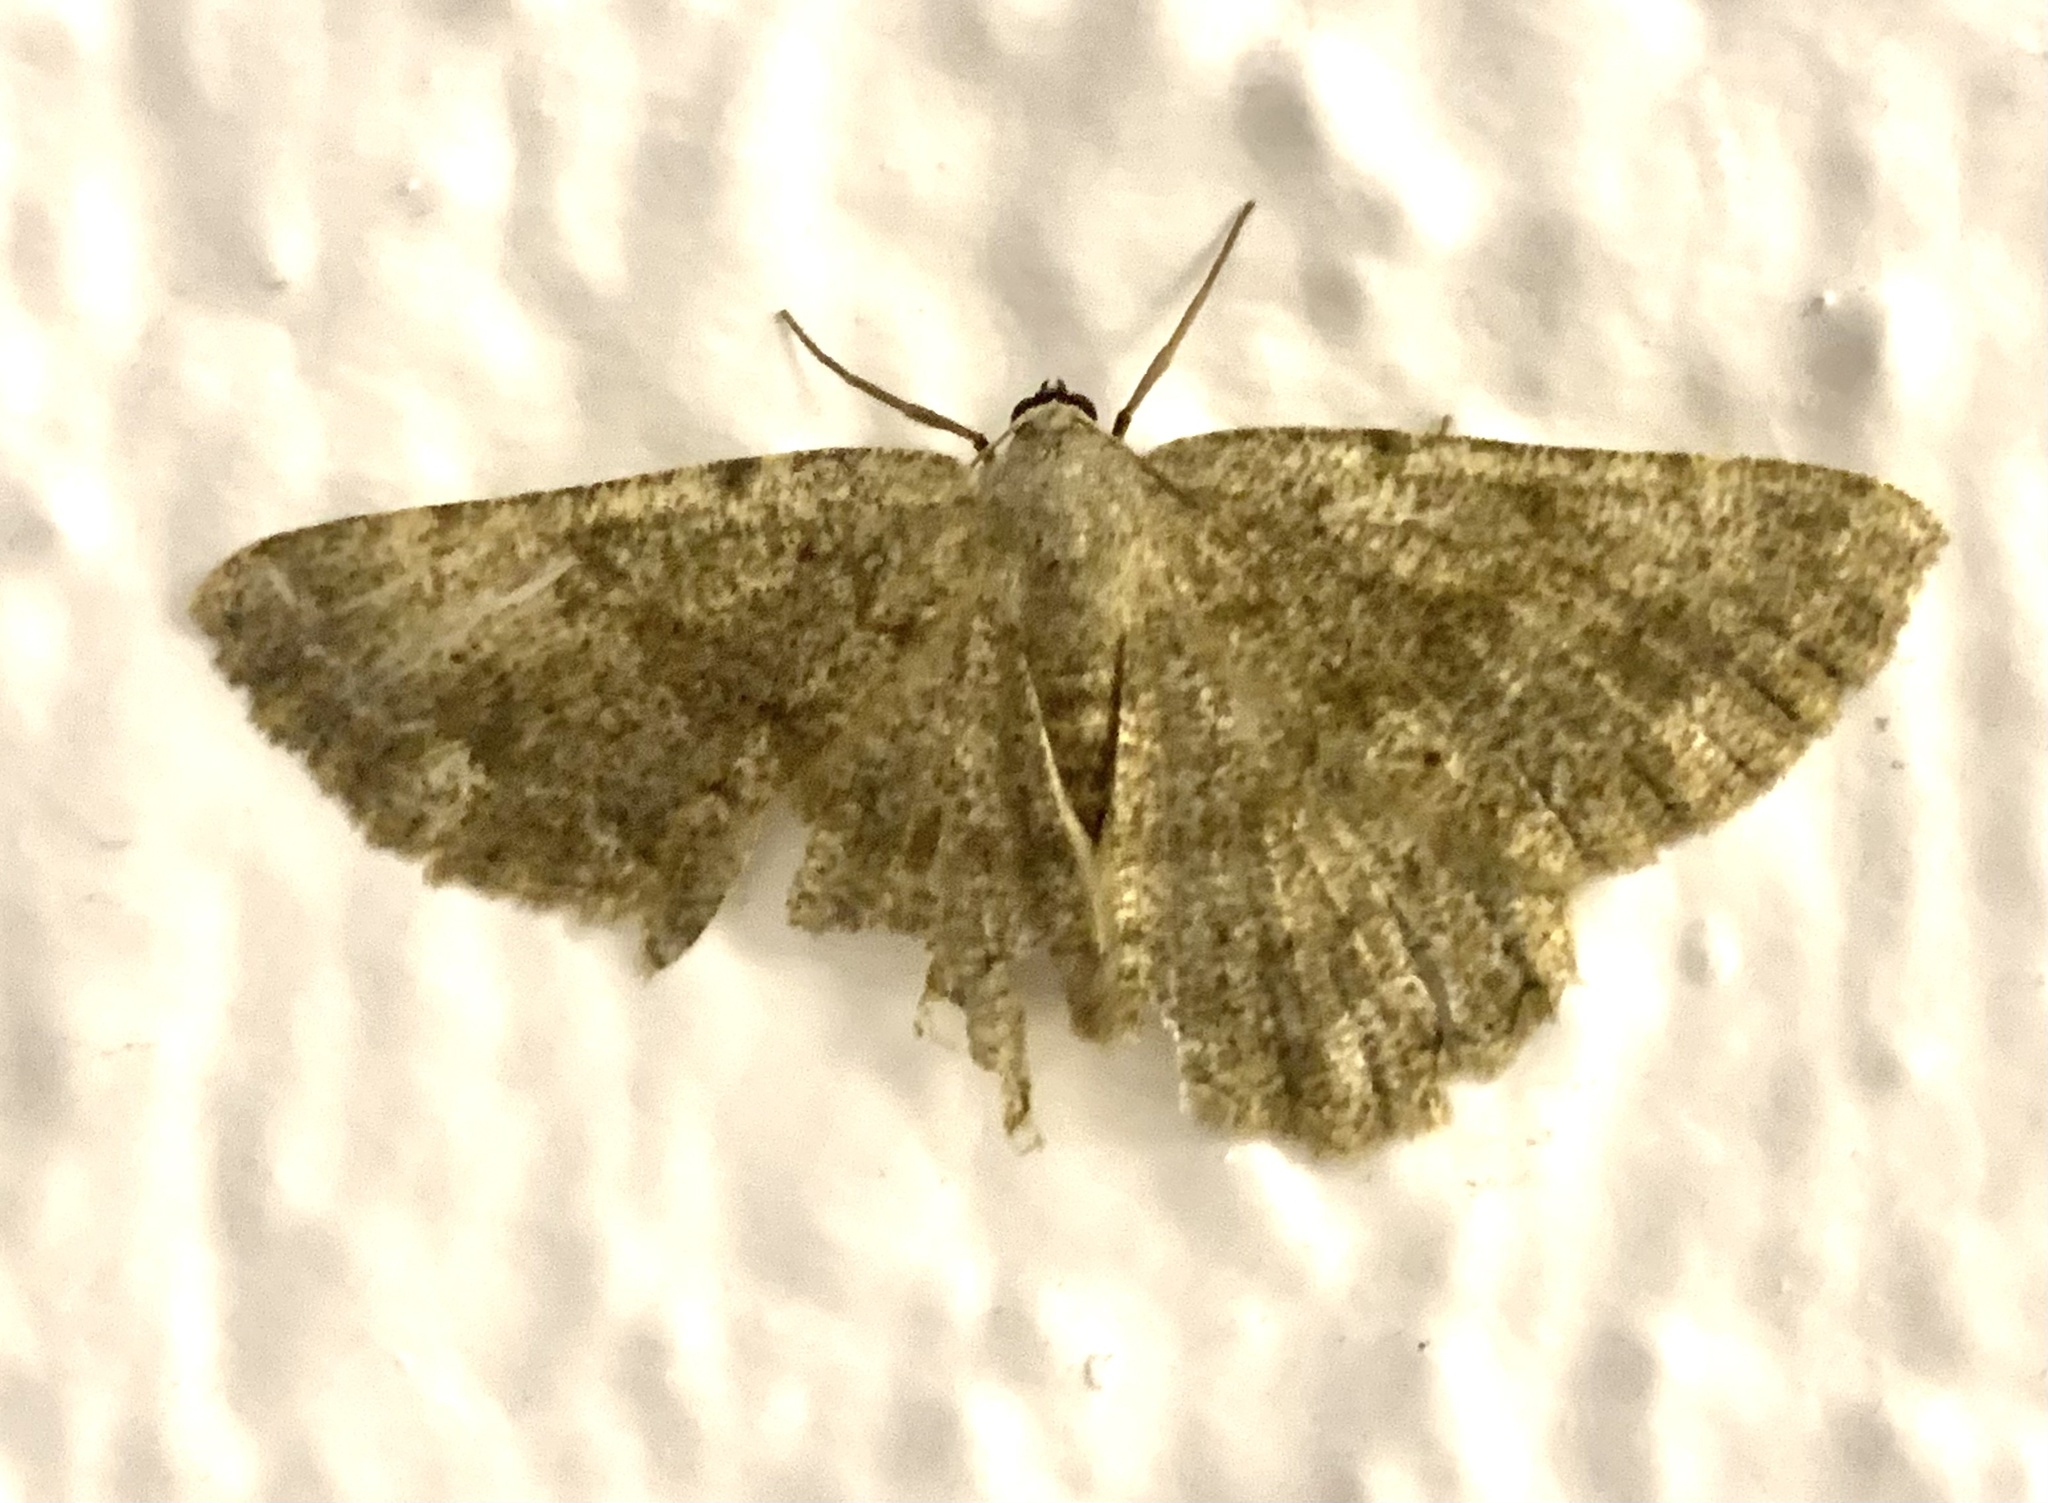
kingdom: Animalia
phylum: Arthropoda
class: Insecta
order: Lepidoptera
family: Geometridae
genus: Gnophos
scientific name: Gnophos sartata
